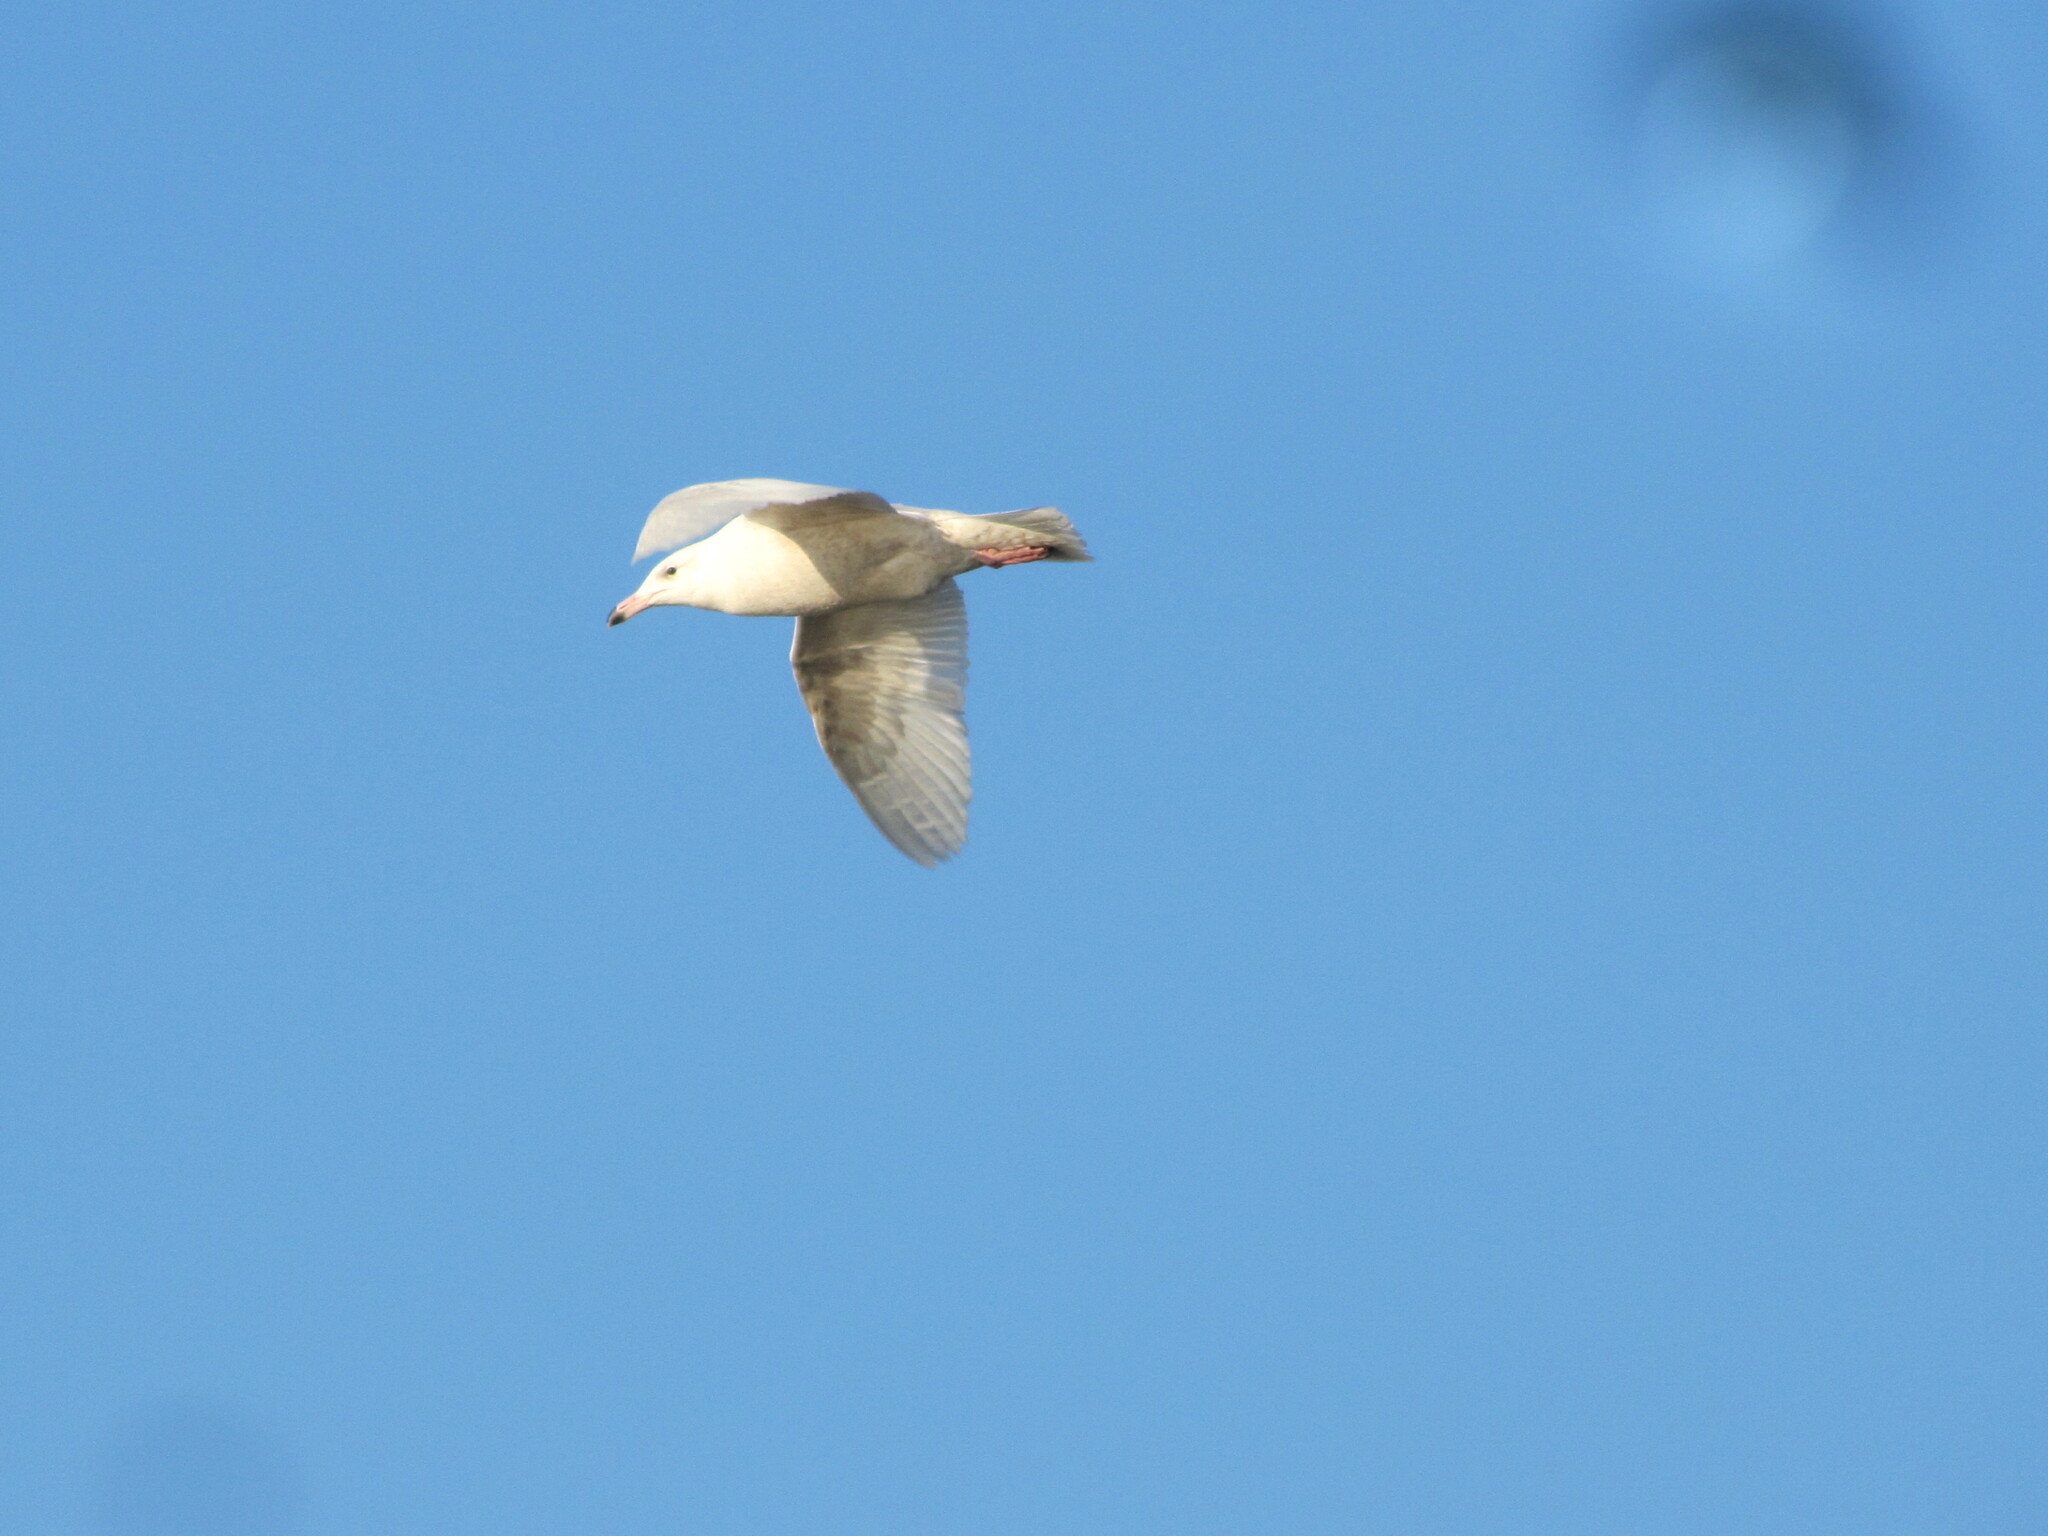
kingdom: Animalia
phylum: Chordata
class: Aves
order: Charadriiformes
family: Laridae
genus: Larus
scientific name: Larus hyperboreus
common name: Glaucous gull
